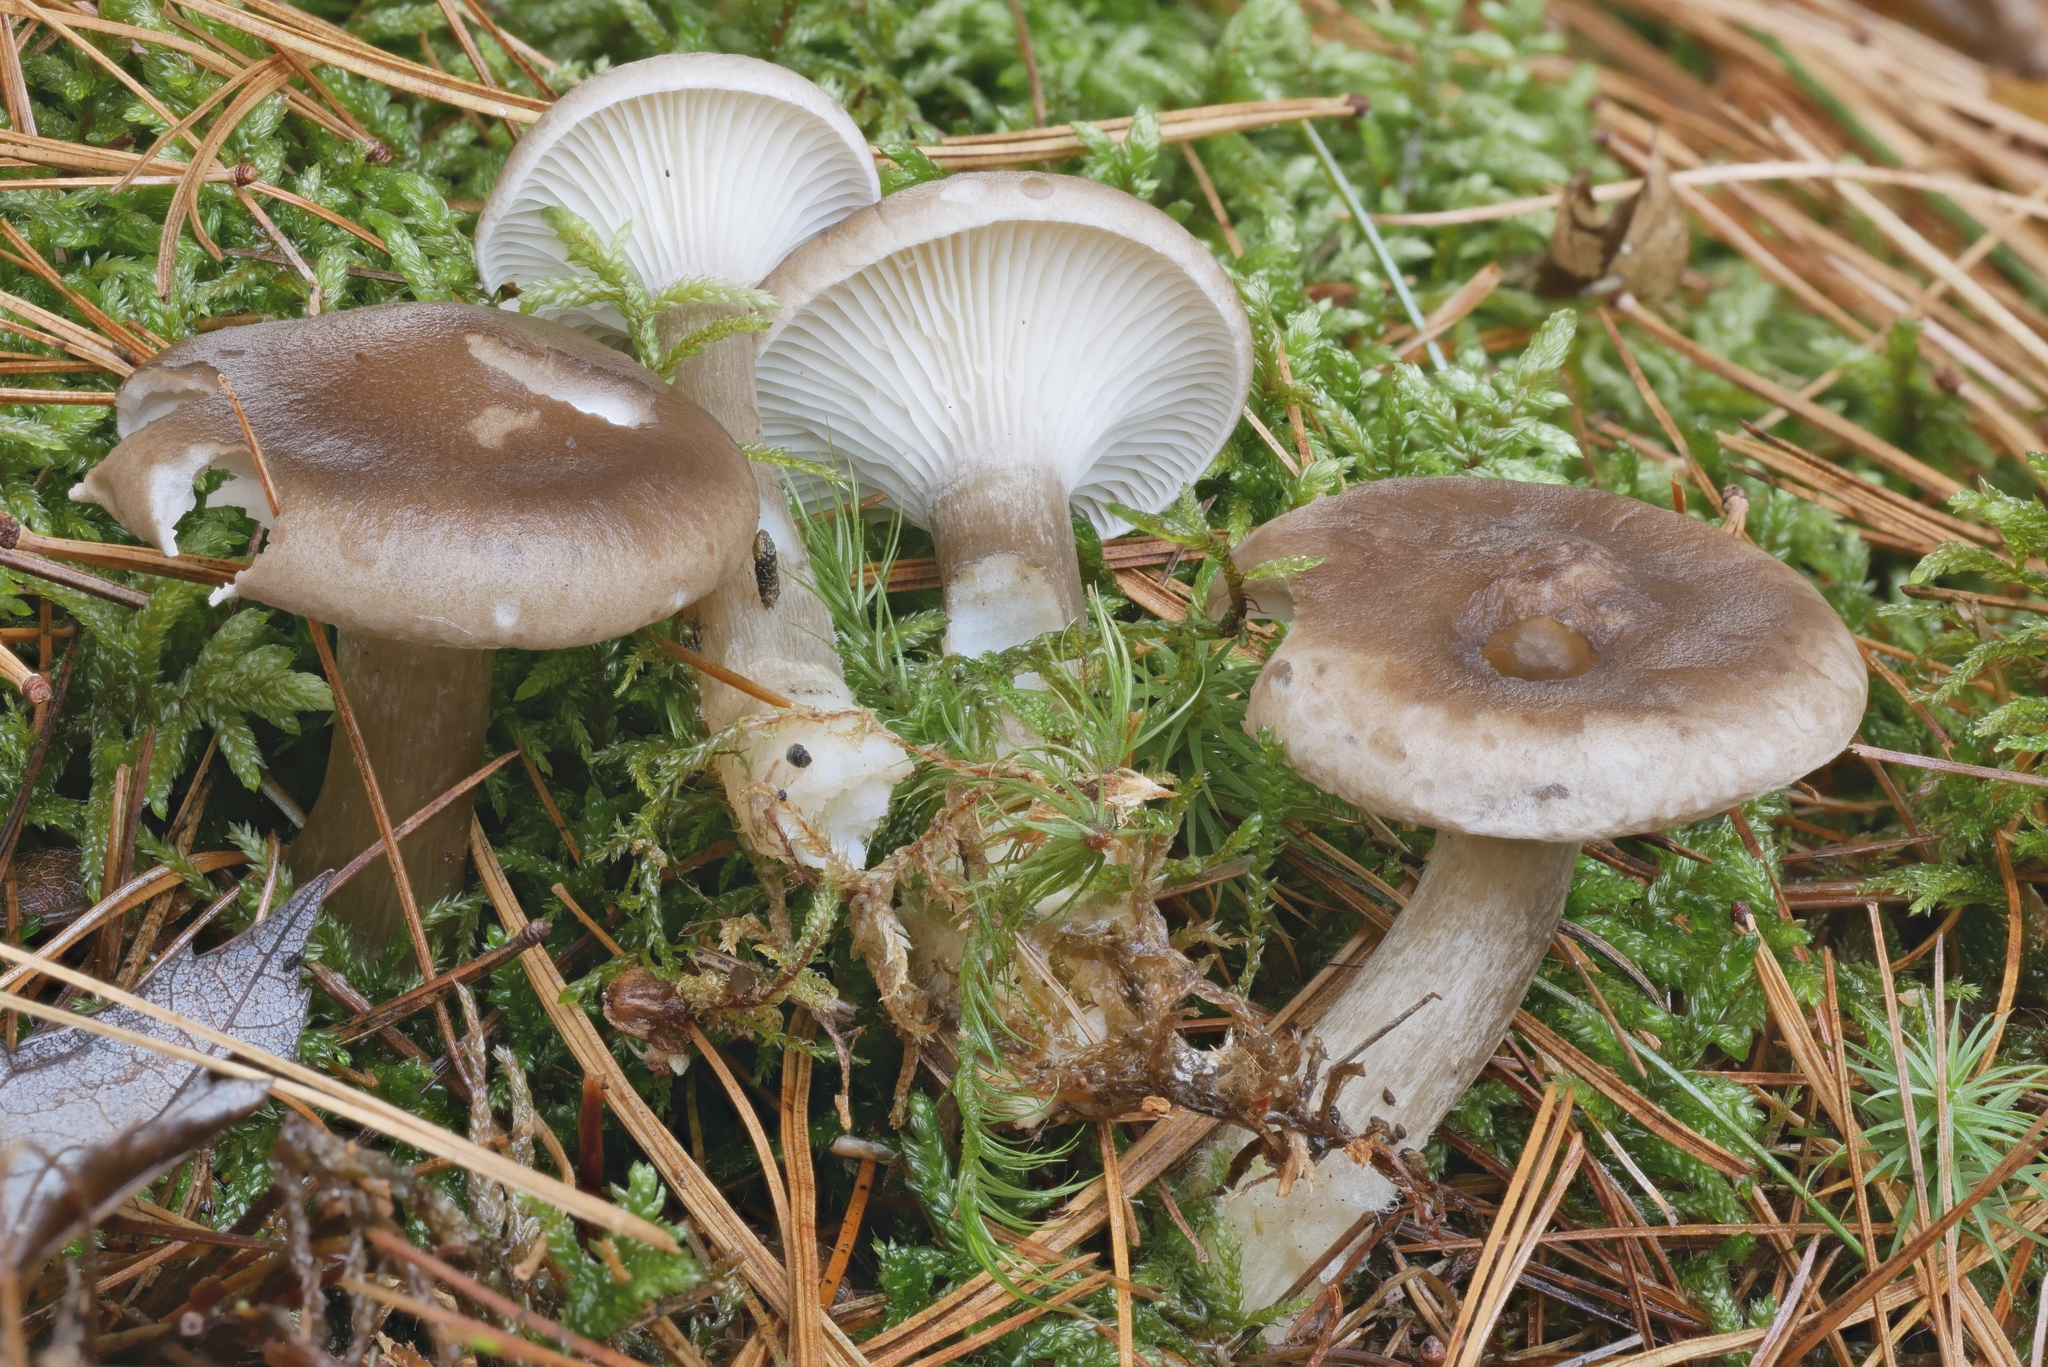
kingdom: Fungi
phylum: Basidiomycota
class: Agaricomycetes
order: Agaricales
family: Hygrophoraceae
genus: Ampulloclitocybe
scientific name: Ampulloclitocybe clavipes
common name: Club foot
